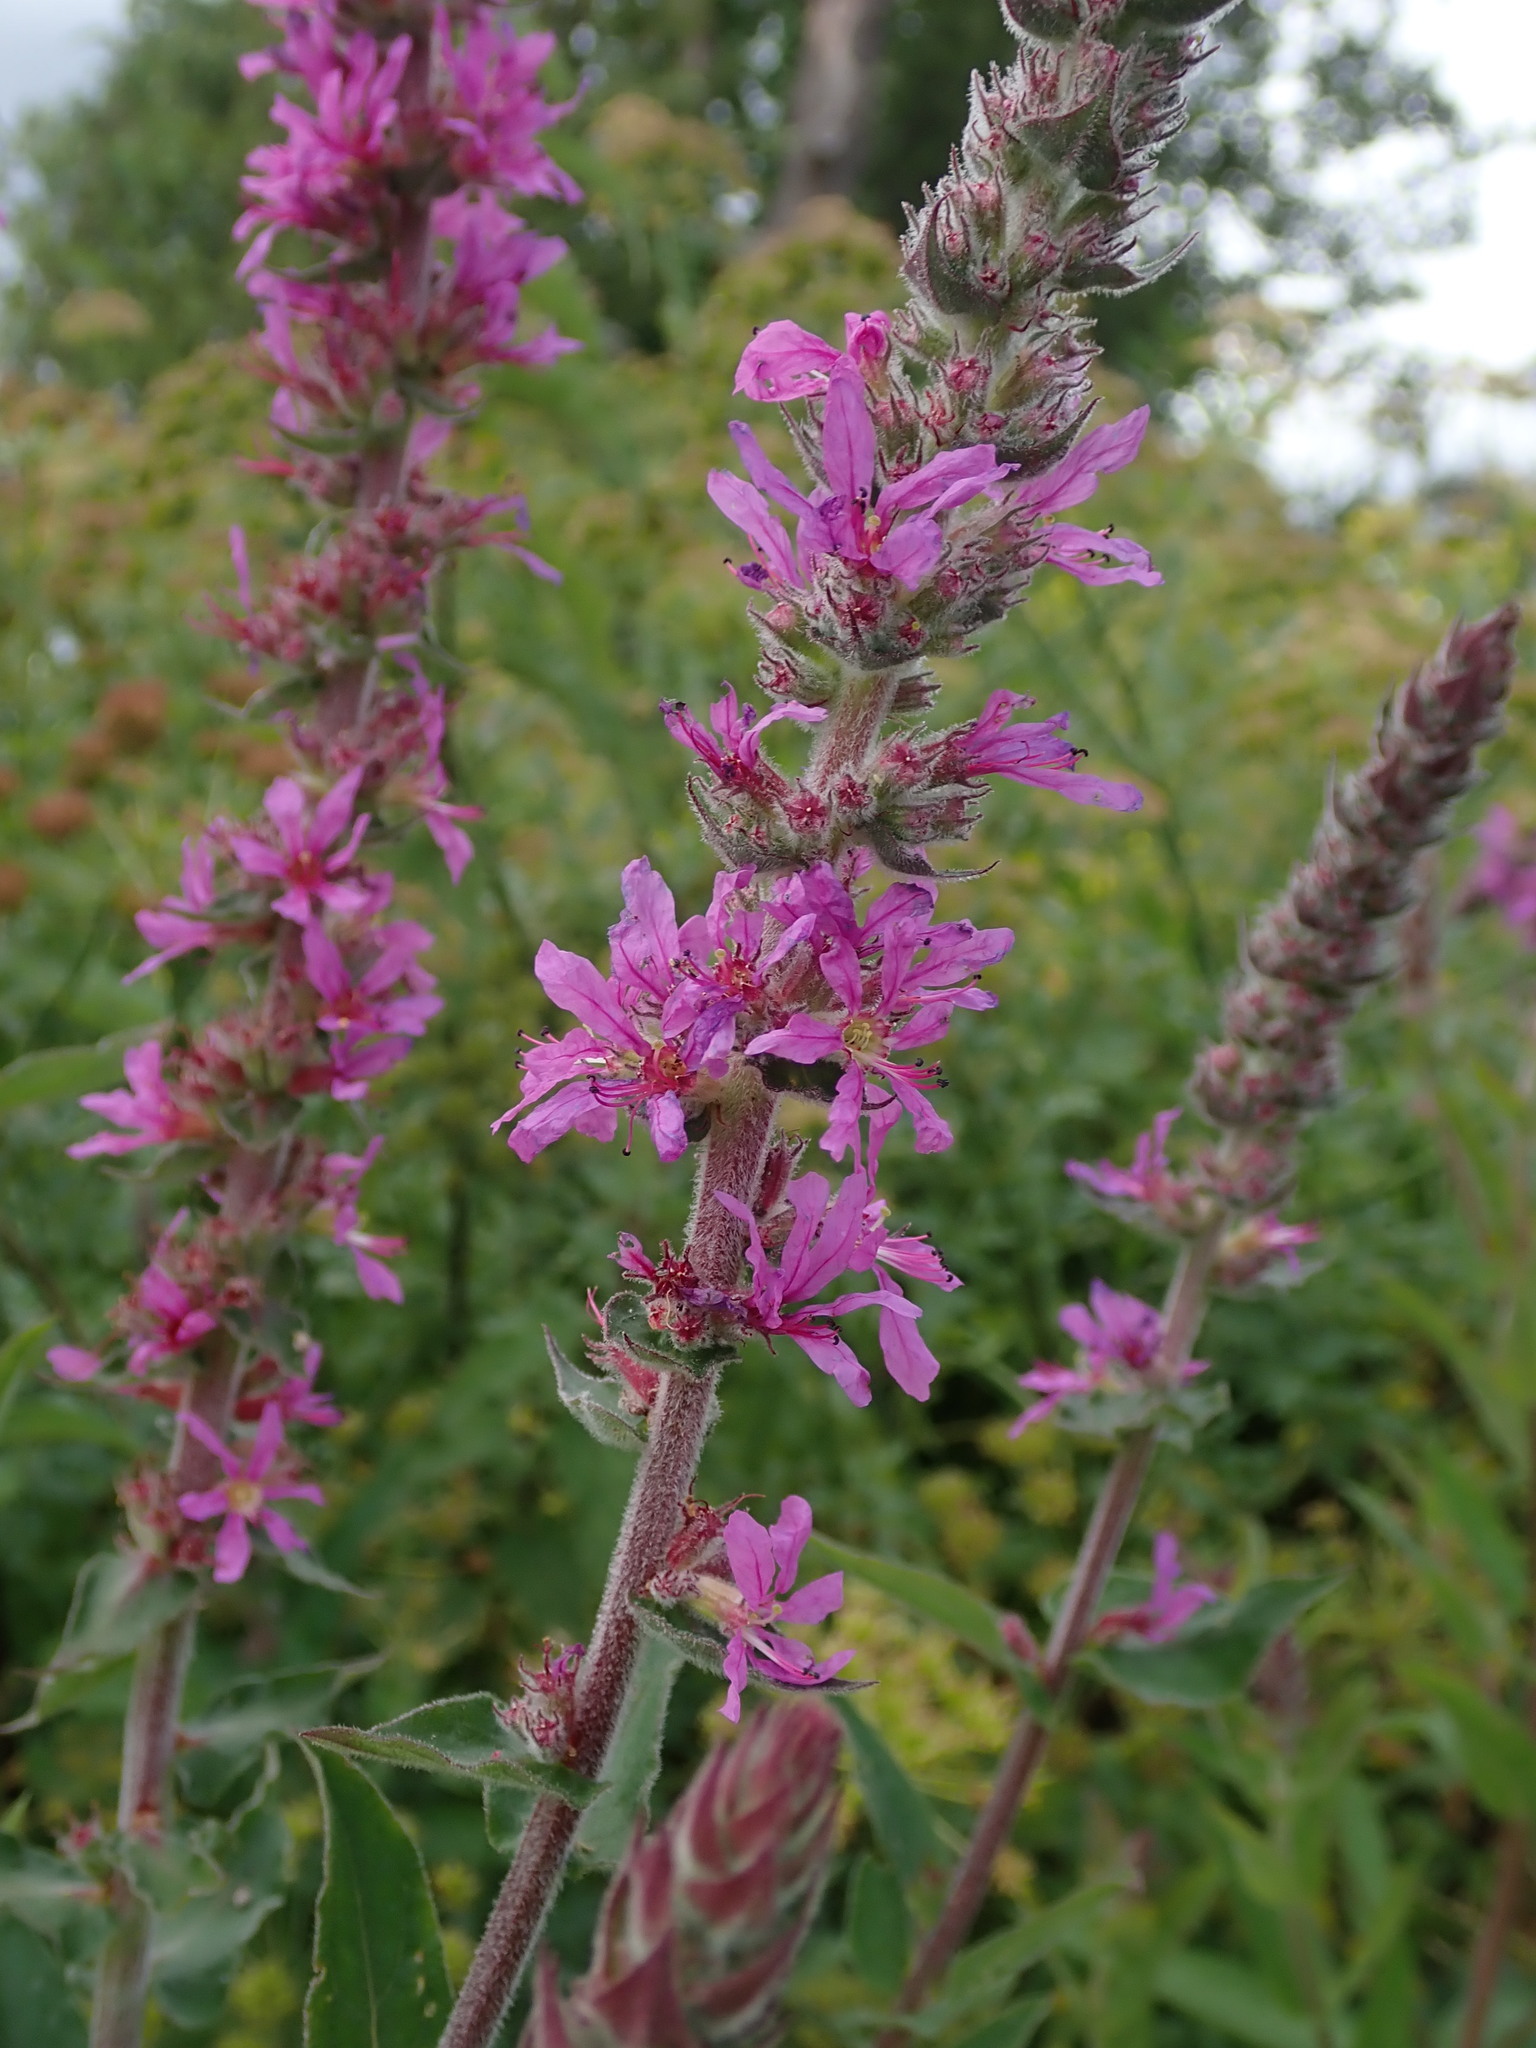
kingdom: Plantae
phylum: Tracheophyta
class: Magnoliopsida
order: Myrtales
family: Lythraceae
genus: Lythrum
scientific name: Lythrum salicaria
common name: Purple loosestrife
